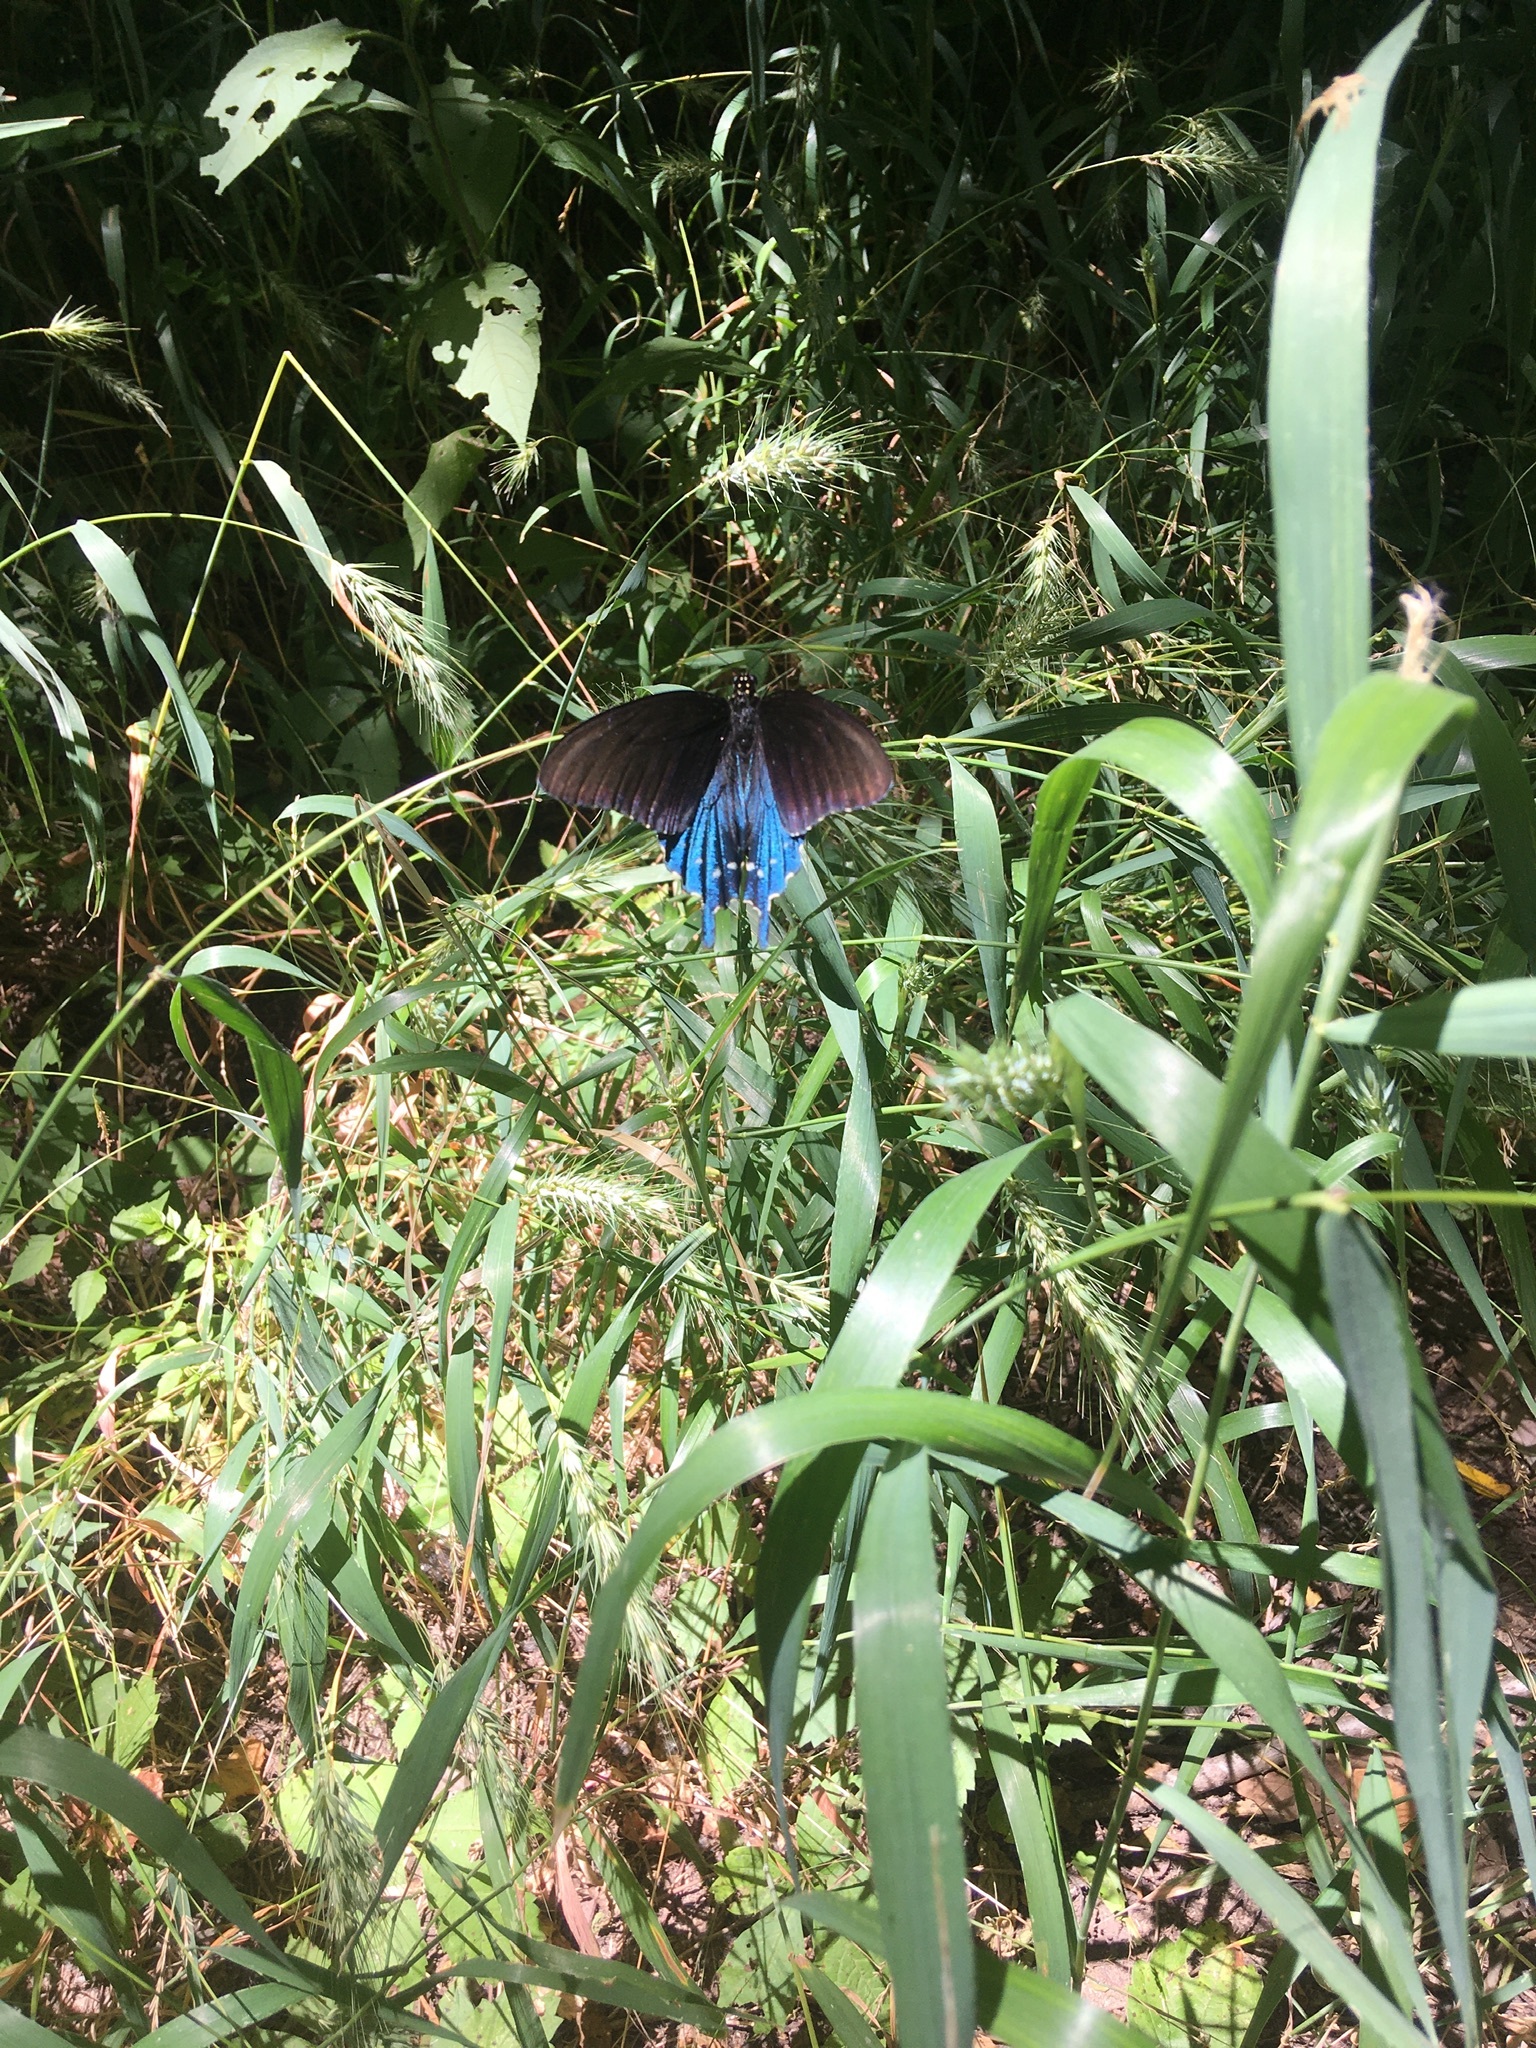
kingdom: Animalia
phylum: Arthropoda
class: Insecta
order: Lepidoptera
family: Papilionidae
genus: Battus
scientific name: Battus philenor
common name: Pipevine swallowtail
